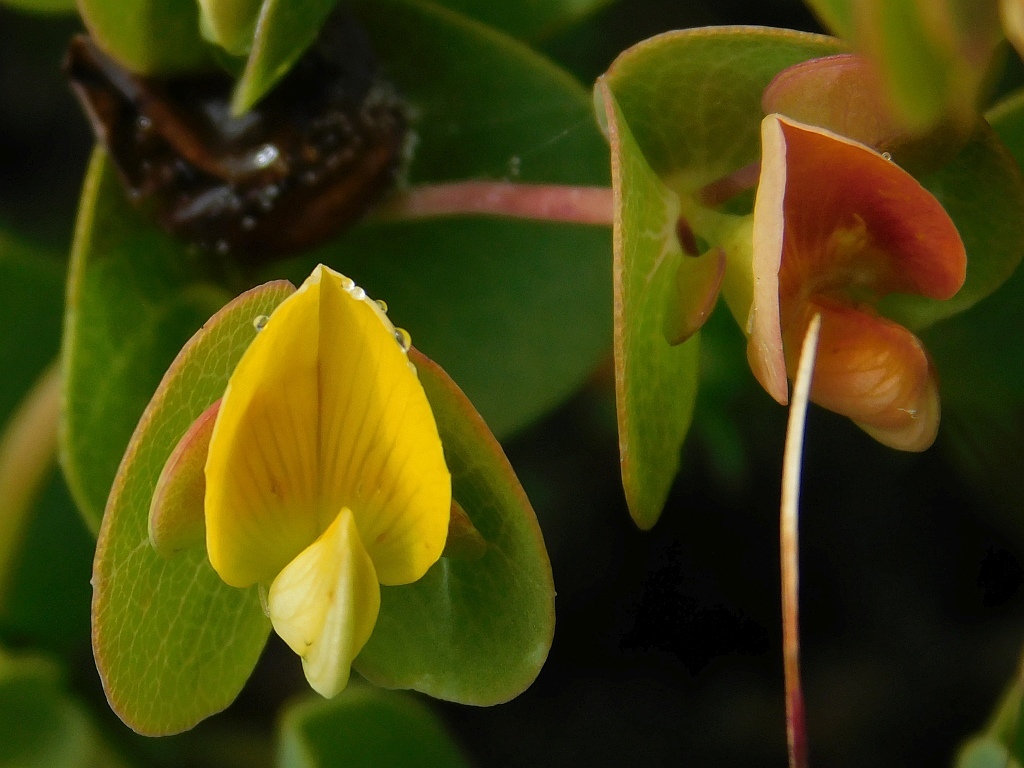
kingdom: Plantae
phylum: Tracheophyta
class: Magnoliopsida
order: Fabales
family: Fabaceae
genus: Rafnia
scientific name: Rafnia acuminata
